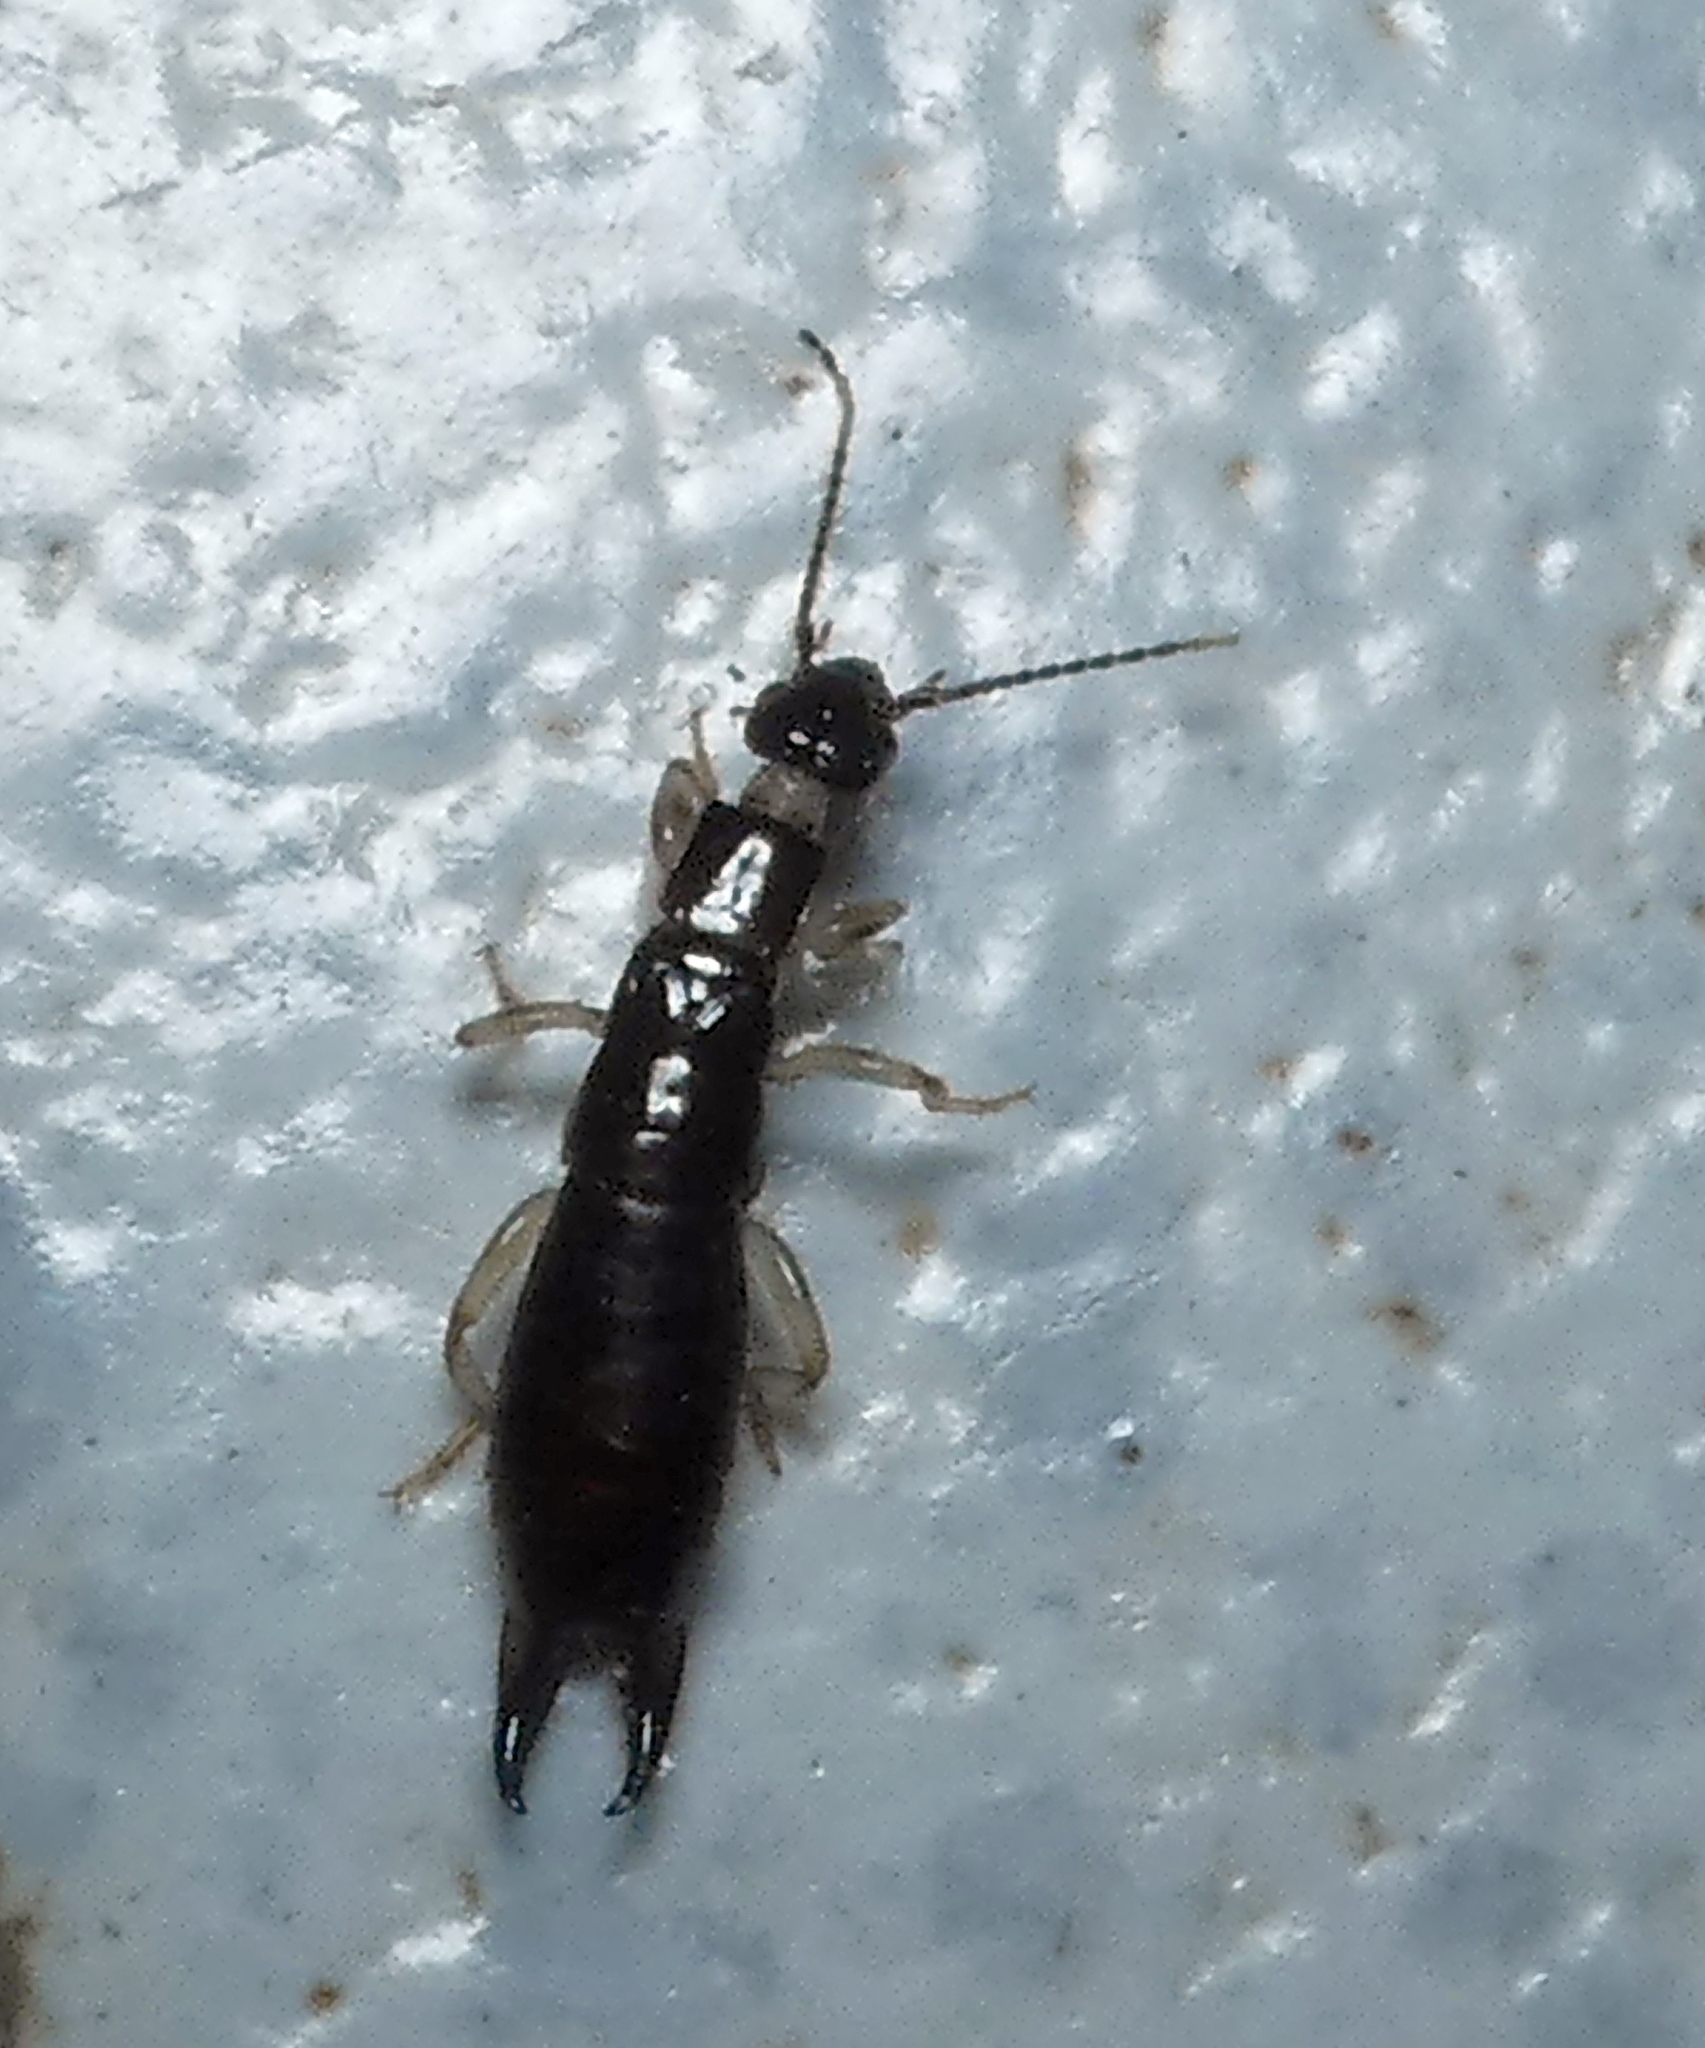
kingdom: Animalia
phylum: Arthropoda
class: Insecta
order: Dermaptera
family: Anisolabididae
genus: Euborellia
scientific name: Euborellia janeirensis
